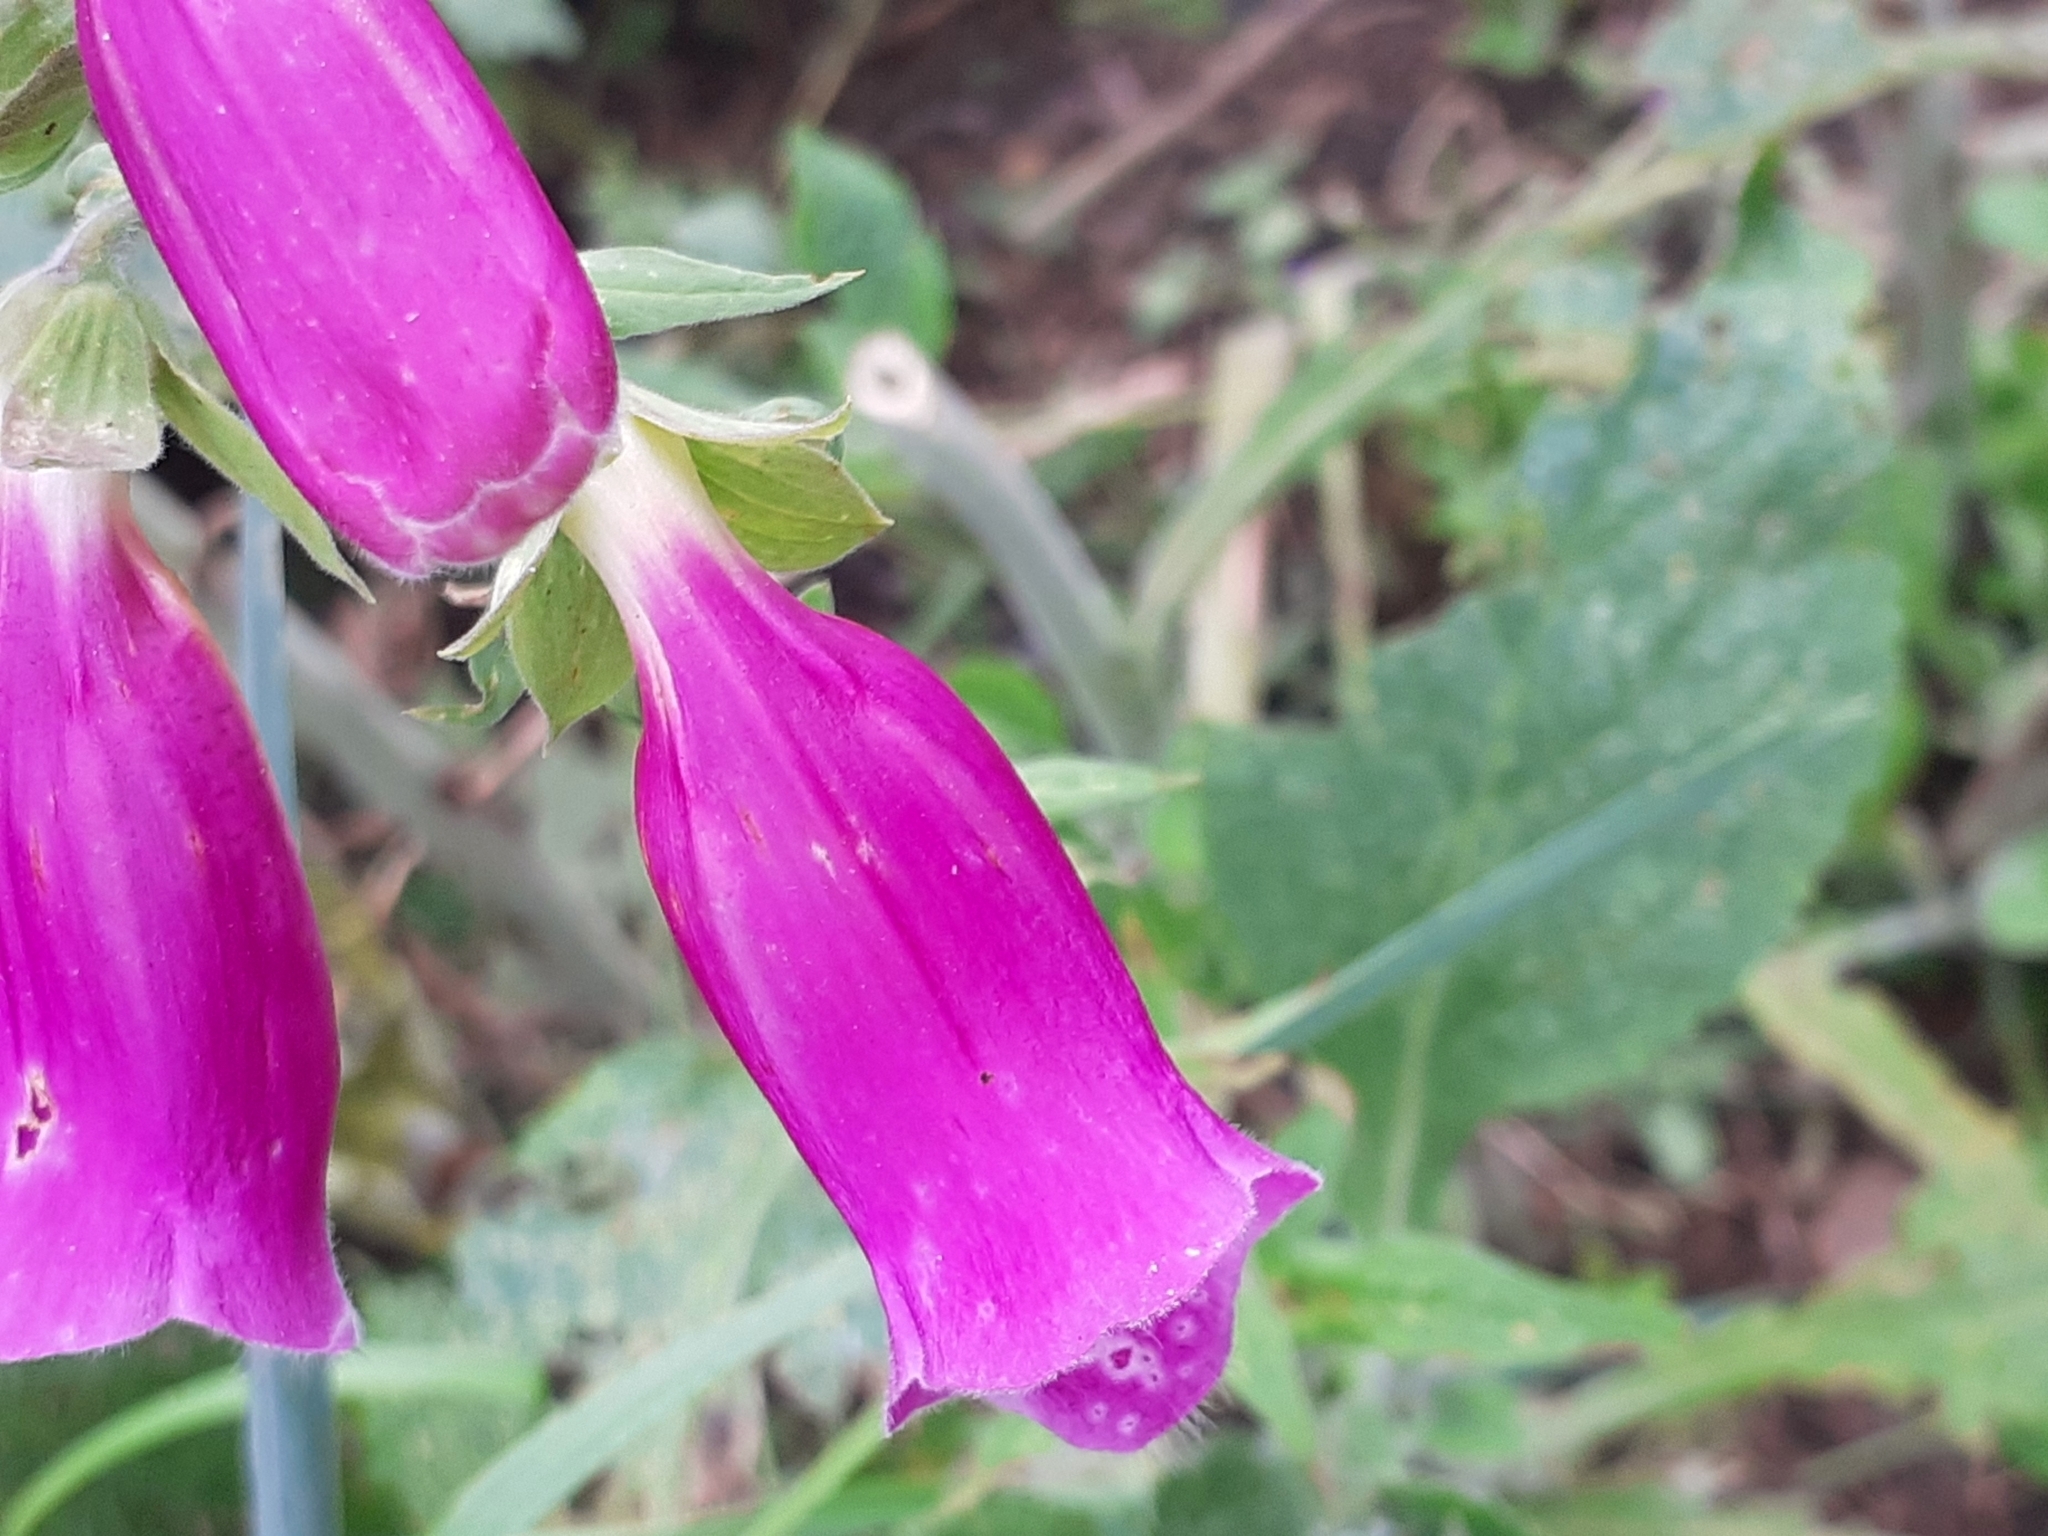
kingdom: Plantae
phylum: Tracheophyta
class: Magnoliopsida
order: Lamiales
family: Plantaginaceae
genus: Digitalis
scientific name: Digitalis purpurea
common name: Foxglove
